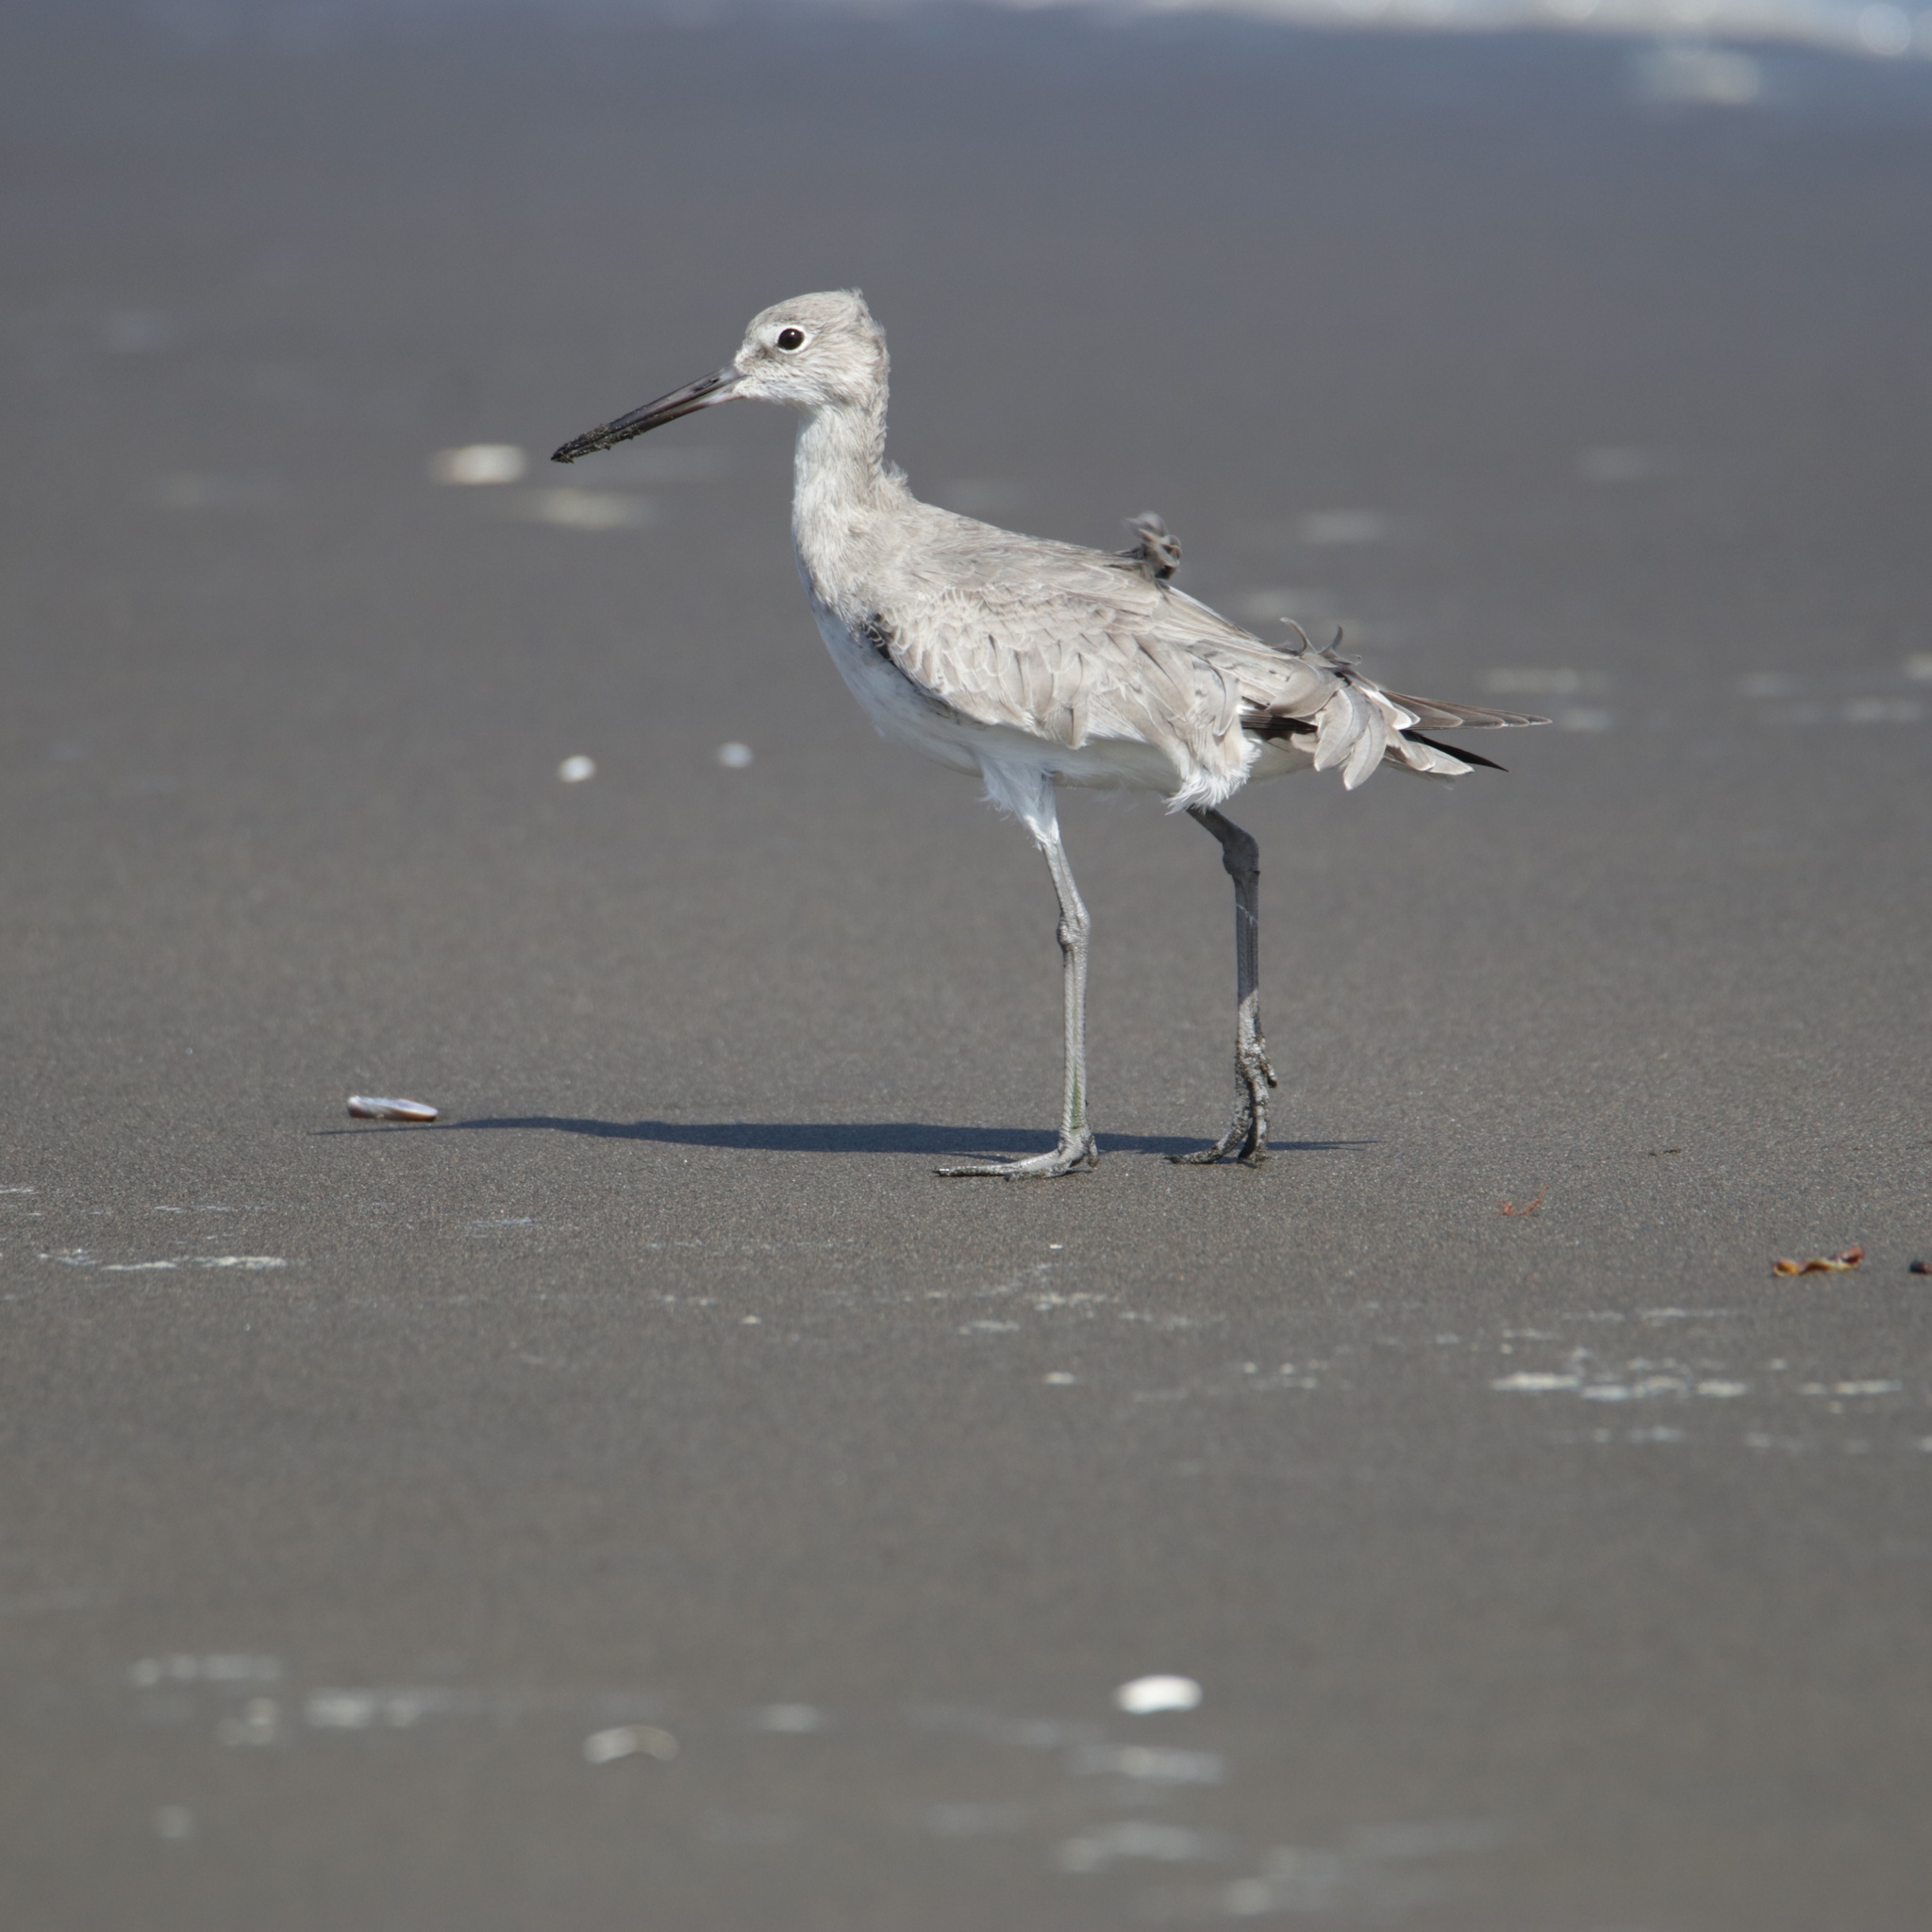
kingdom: Animalia
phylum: Chordata
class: Aves
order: Charadriiformes
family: Scolopacidae
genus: Tringa
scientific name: Tringa semipalmata
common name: Willet
